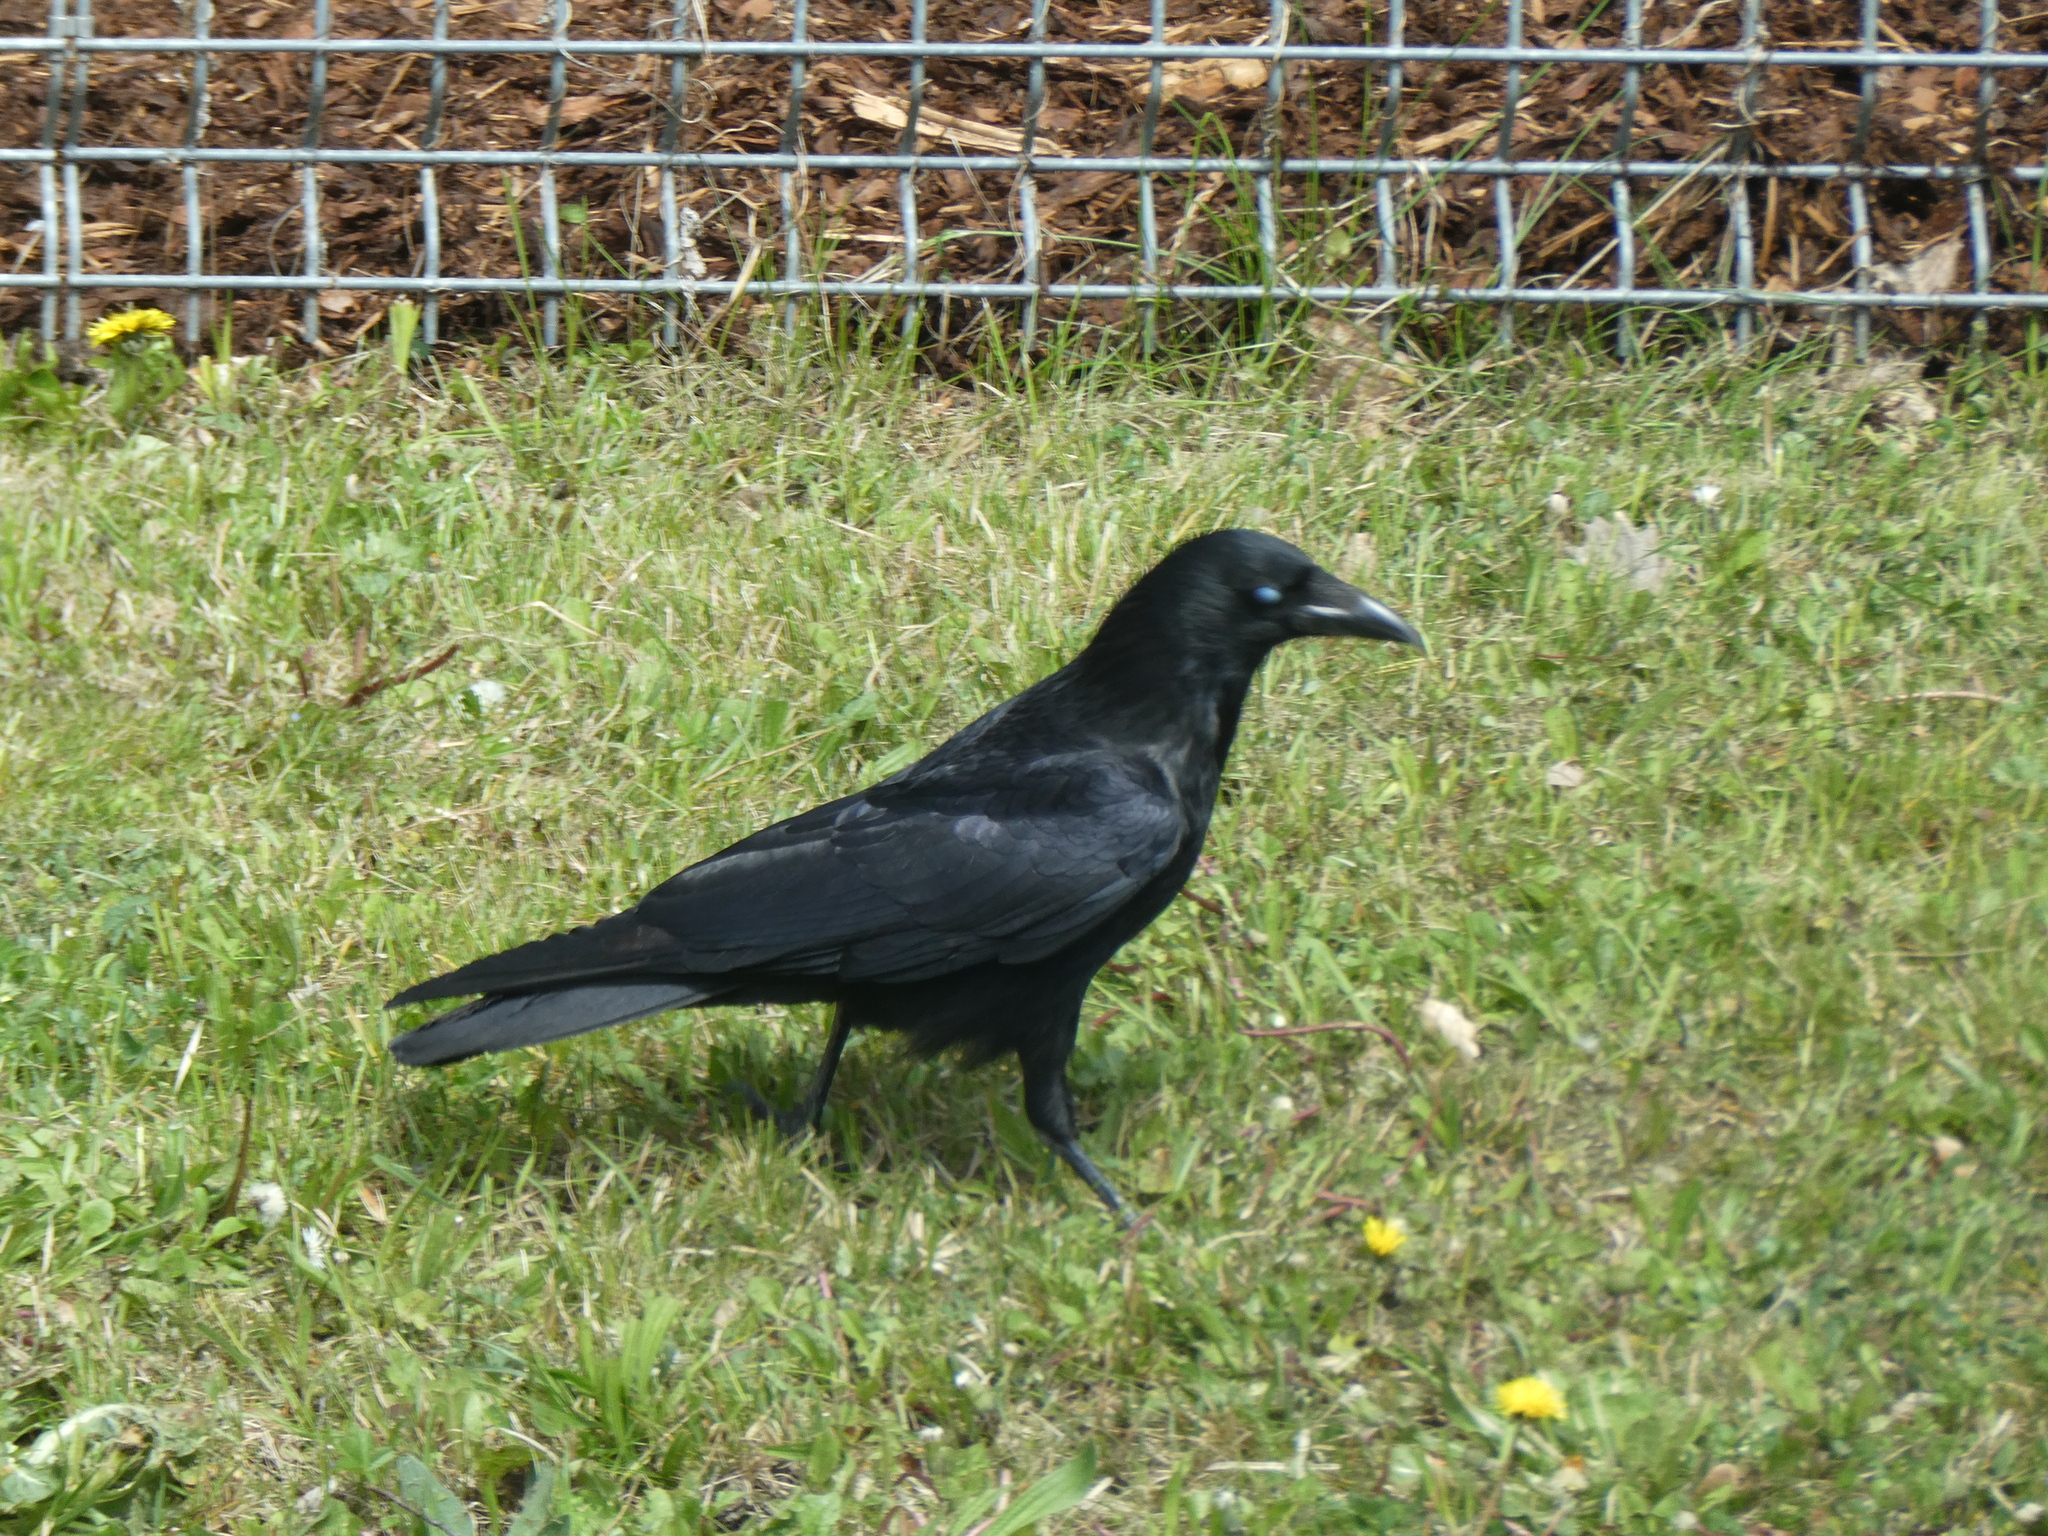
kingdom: Animalia
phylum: Chordata
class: Aves
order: Passeriformes
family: Corvidae
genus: Corvus
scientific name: Corvus corone
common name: Carrion crow
